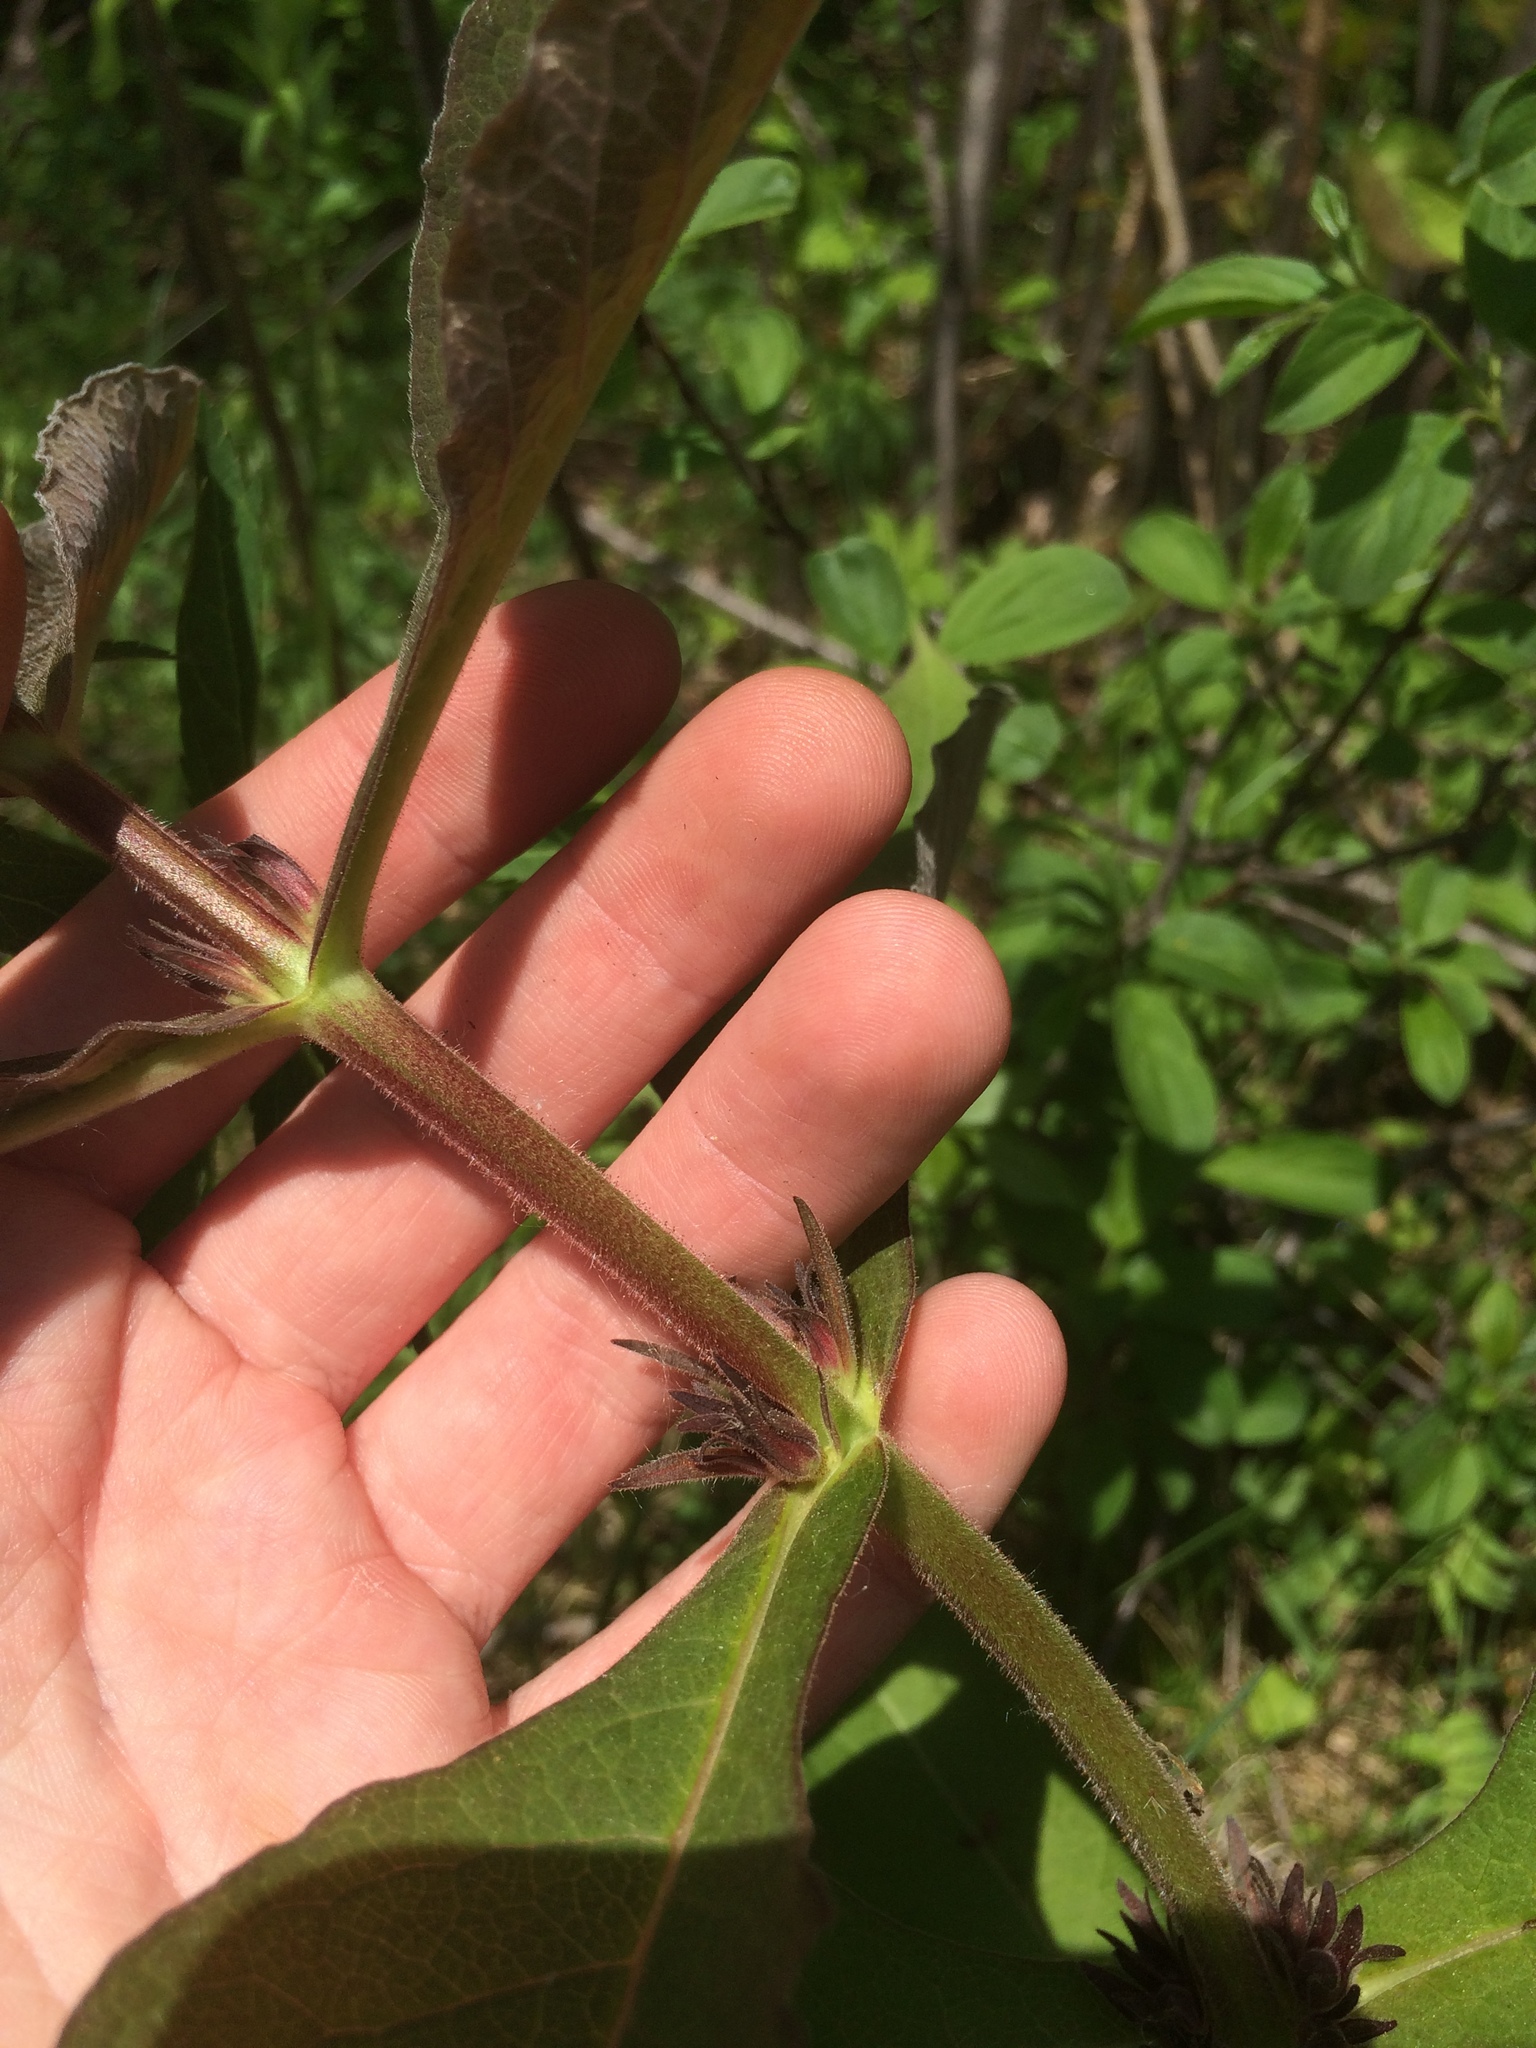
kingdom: Plantae
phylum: Tracheophyta
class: Magnoliopsida
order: Dipsacales
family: Caprifoliaceae
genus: Triosteum
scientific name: Triosteum aurantiacum
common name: Coffee tinker's-weed
